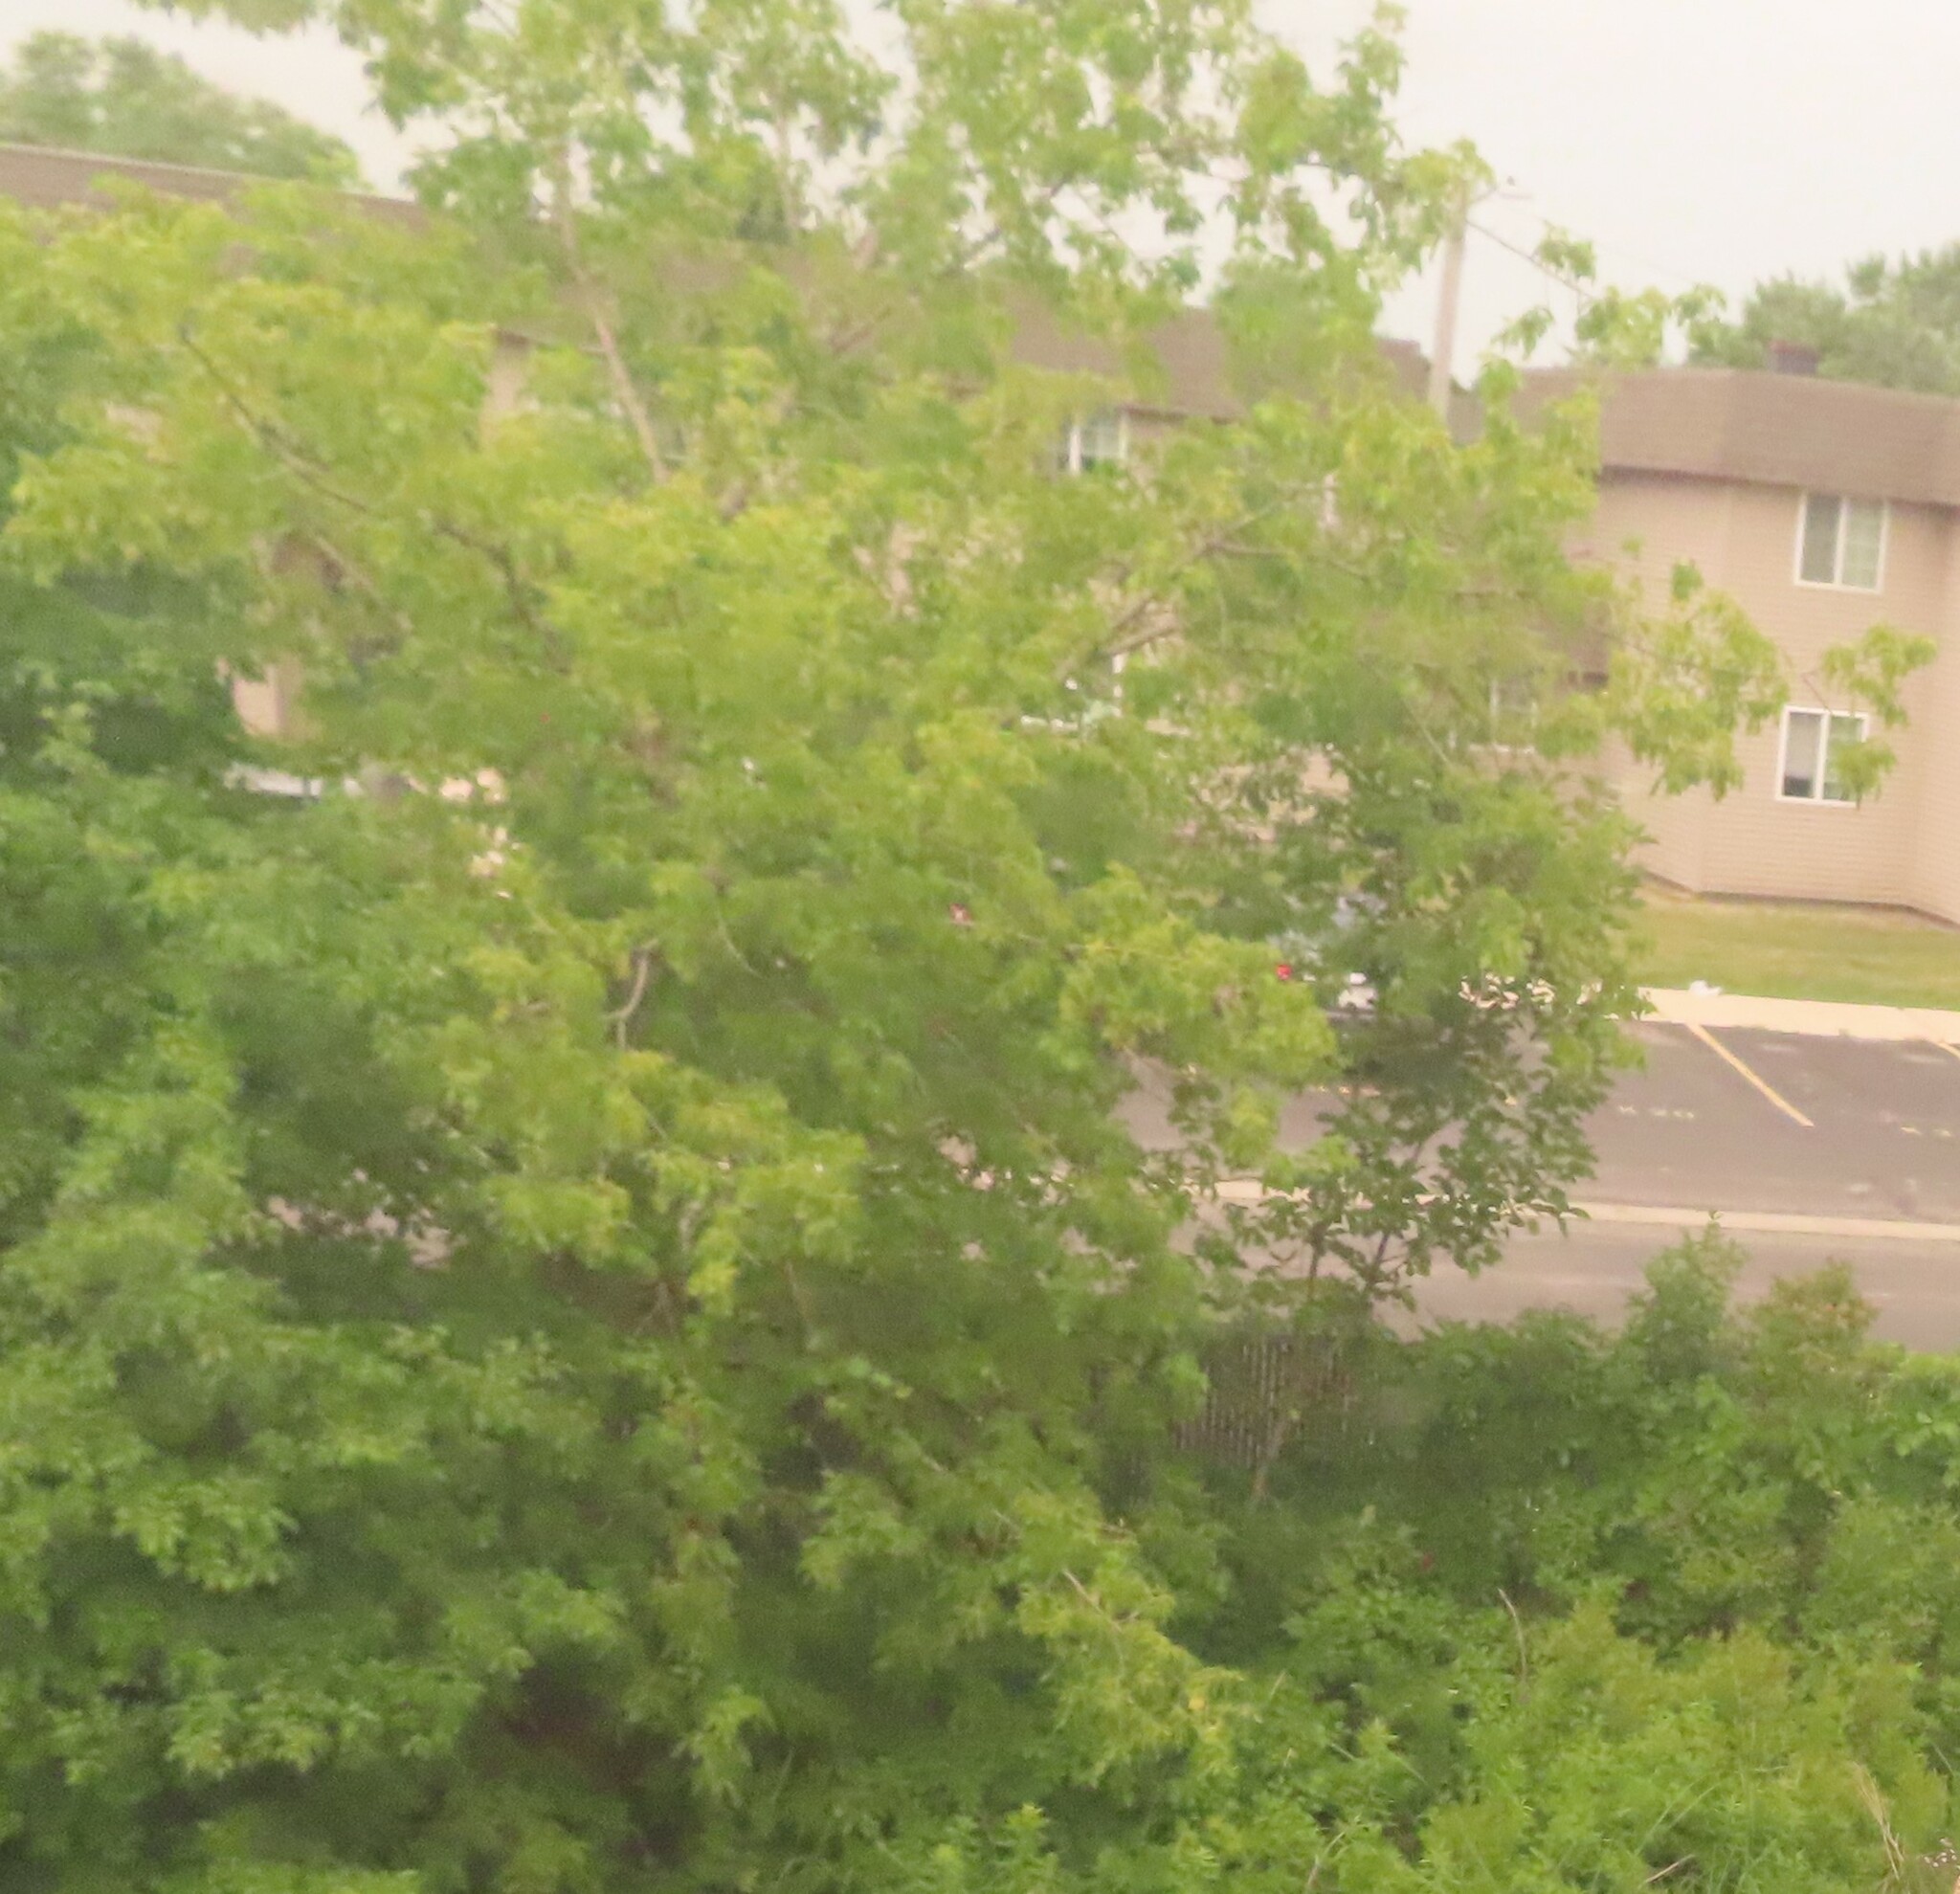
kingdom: Plantae
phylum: Tracheophyta
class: Magnoliopsida
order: Sapindales
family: Sapindaceae
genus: Acer
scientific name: Acer negundo
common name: Ashleaf maple
